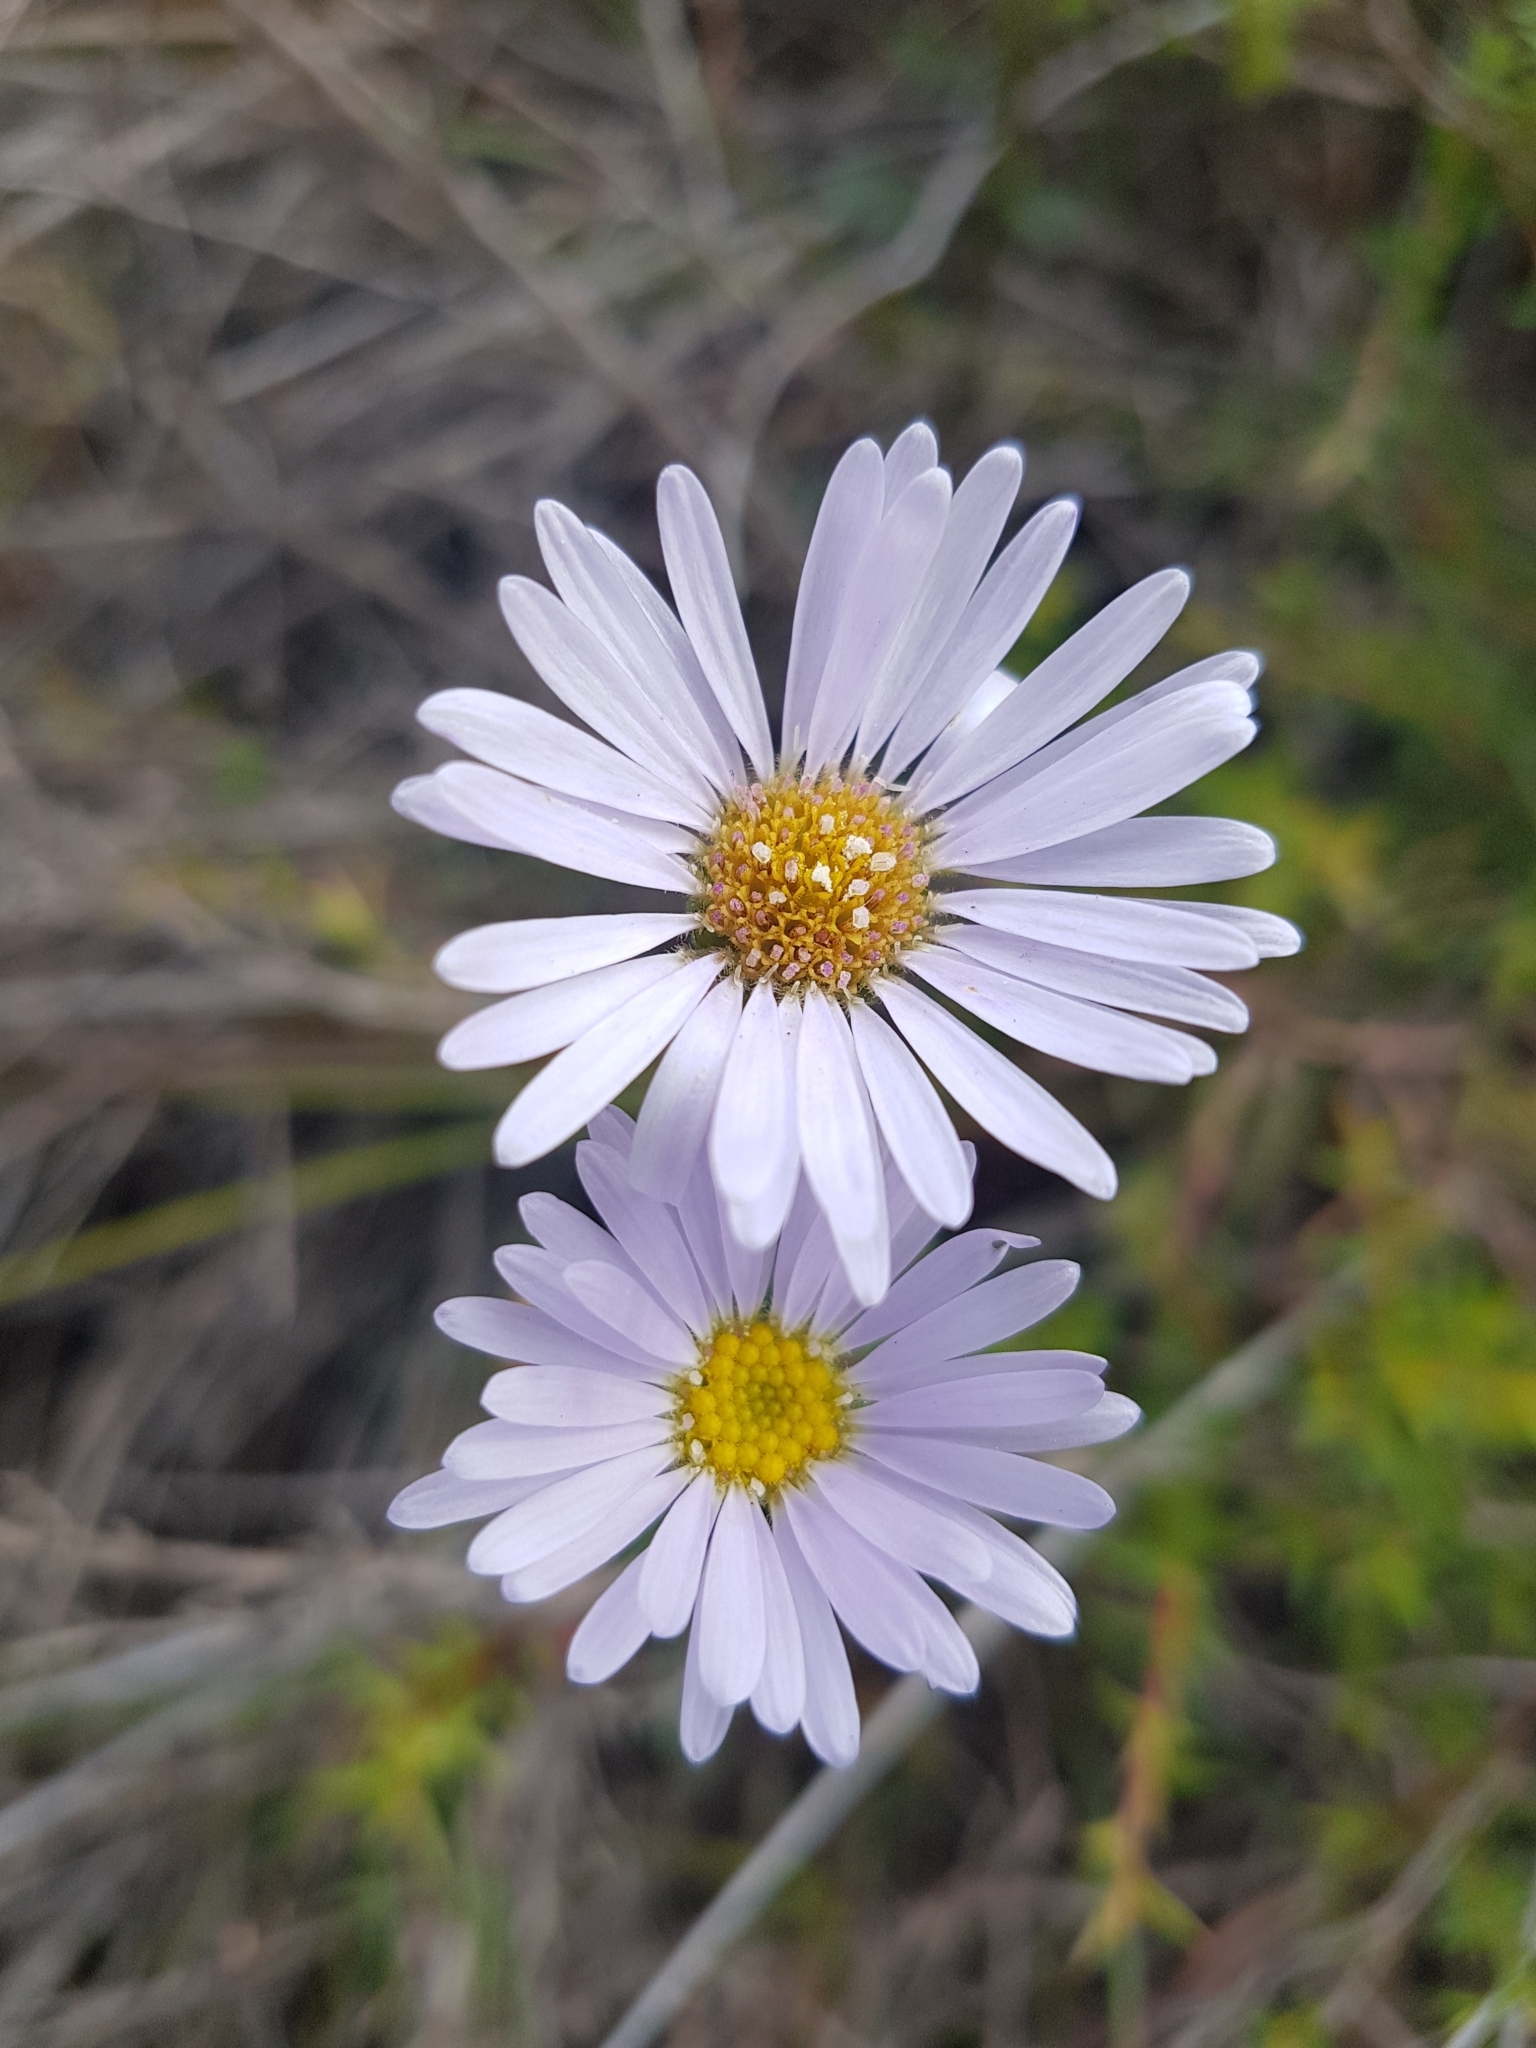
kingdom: Plantae
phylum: Tracheophyta
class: Magnoliopsida
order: Asterales
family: Asteraceae
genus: Brachyscome
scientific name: Brachyscome spathulata
